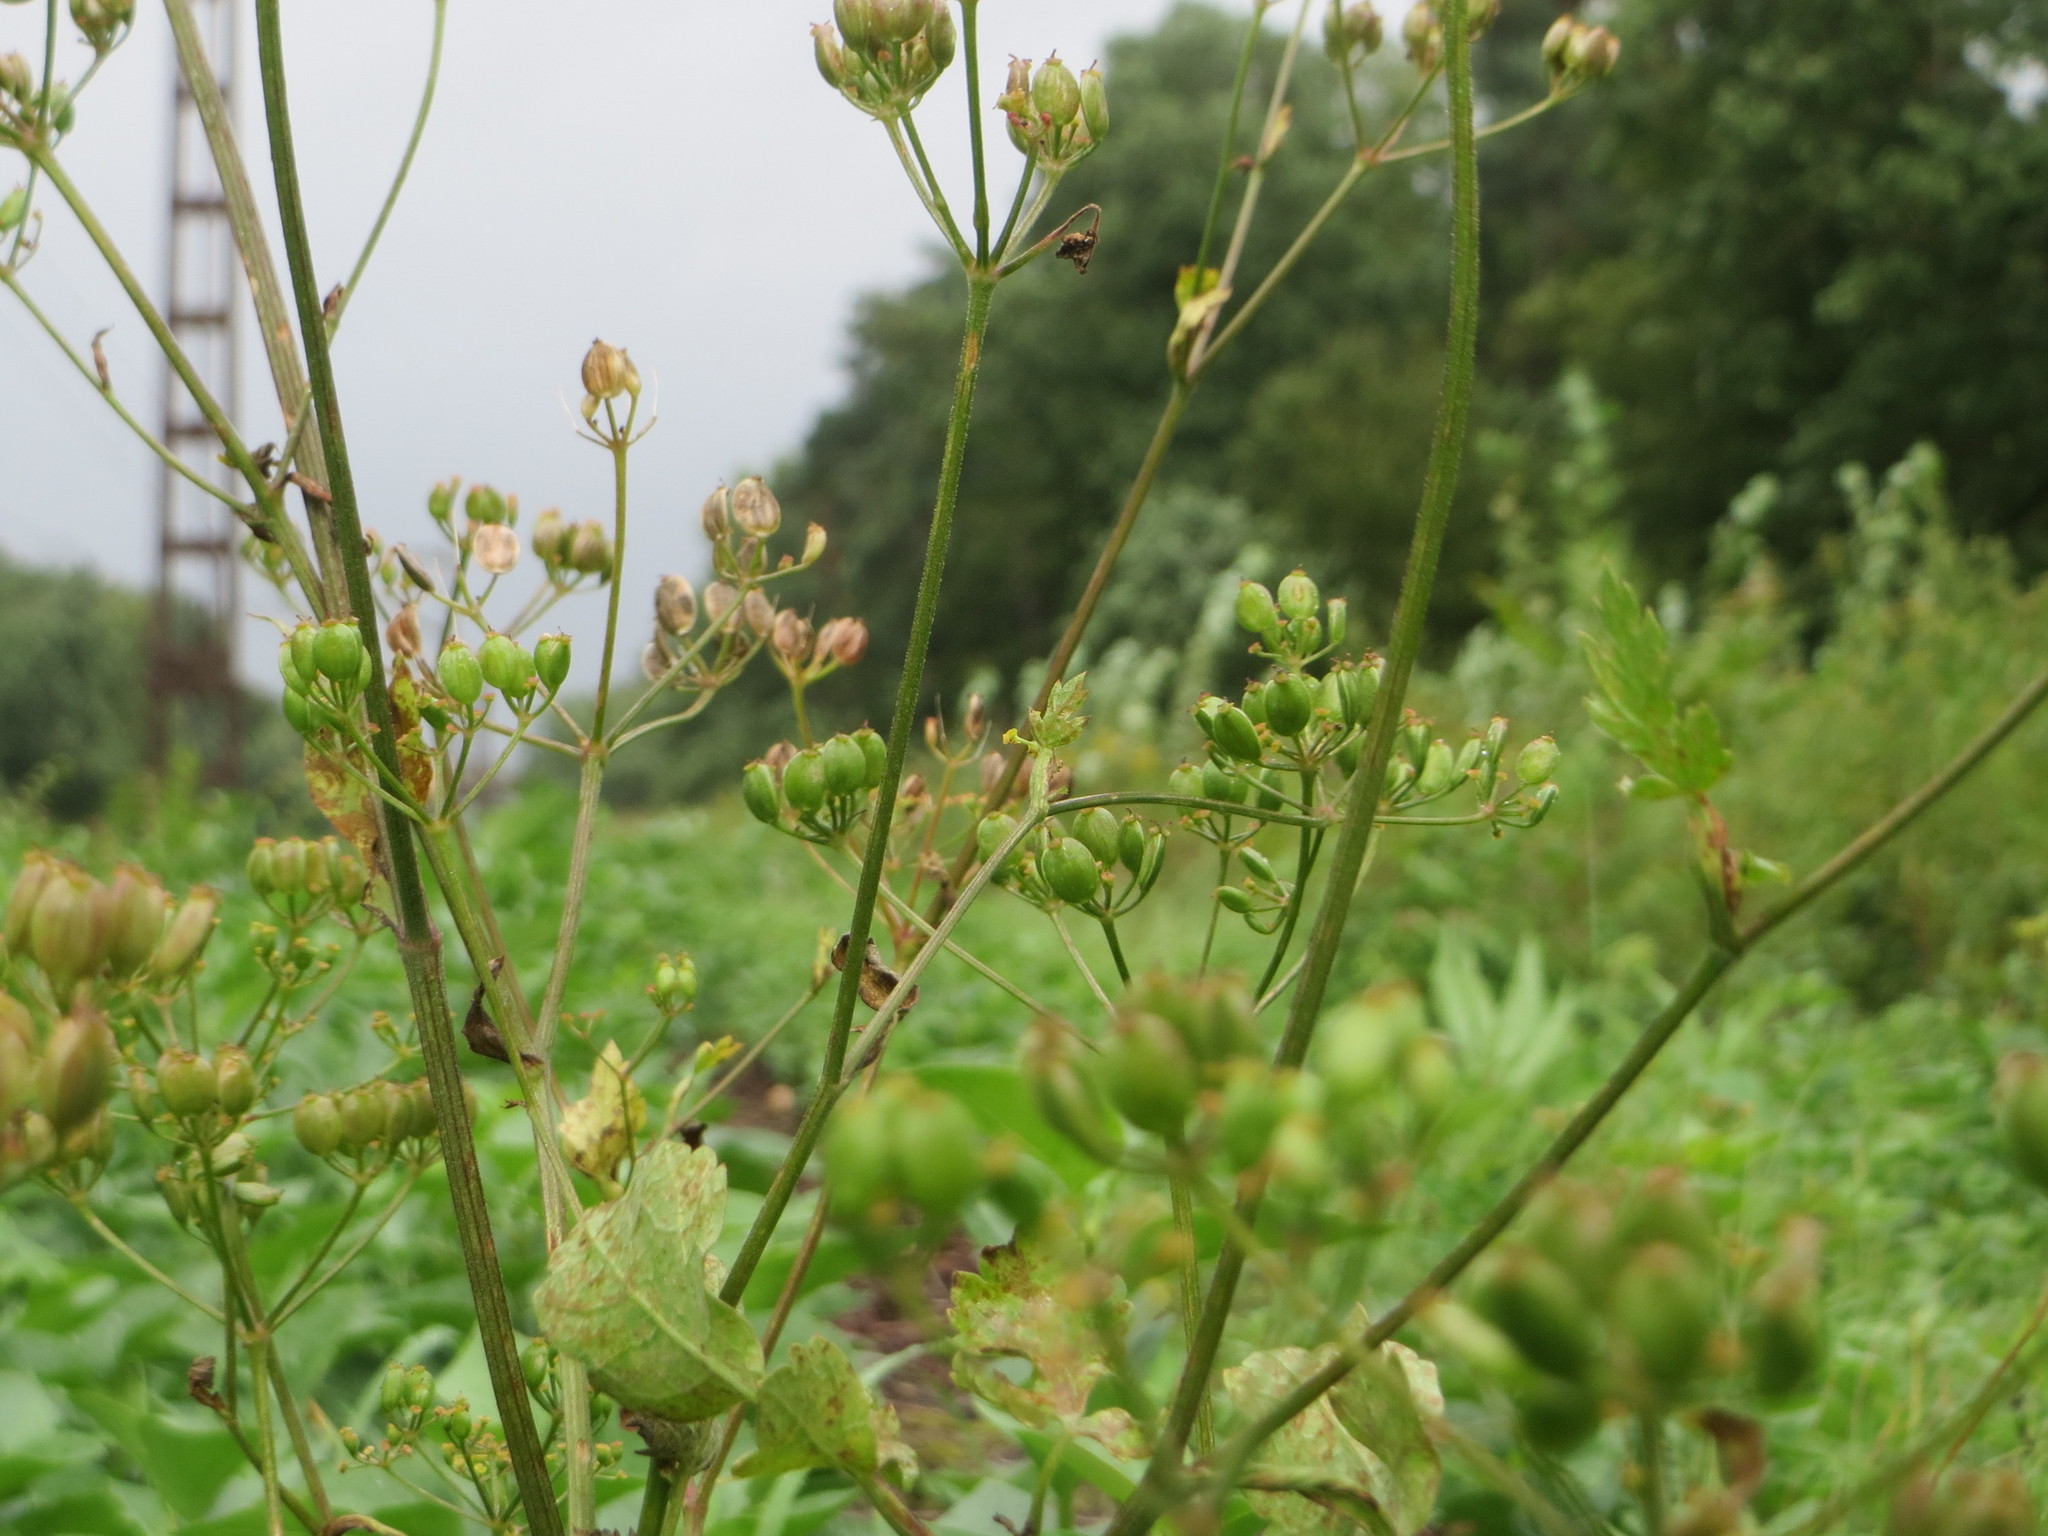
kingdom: Plantae
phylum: Tracheophyta
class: Magnoliopsida
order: Apiales
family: Apiaceae
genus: Pastinaca
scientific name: Pastinaca sativa
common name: Wild parsnip
